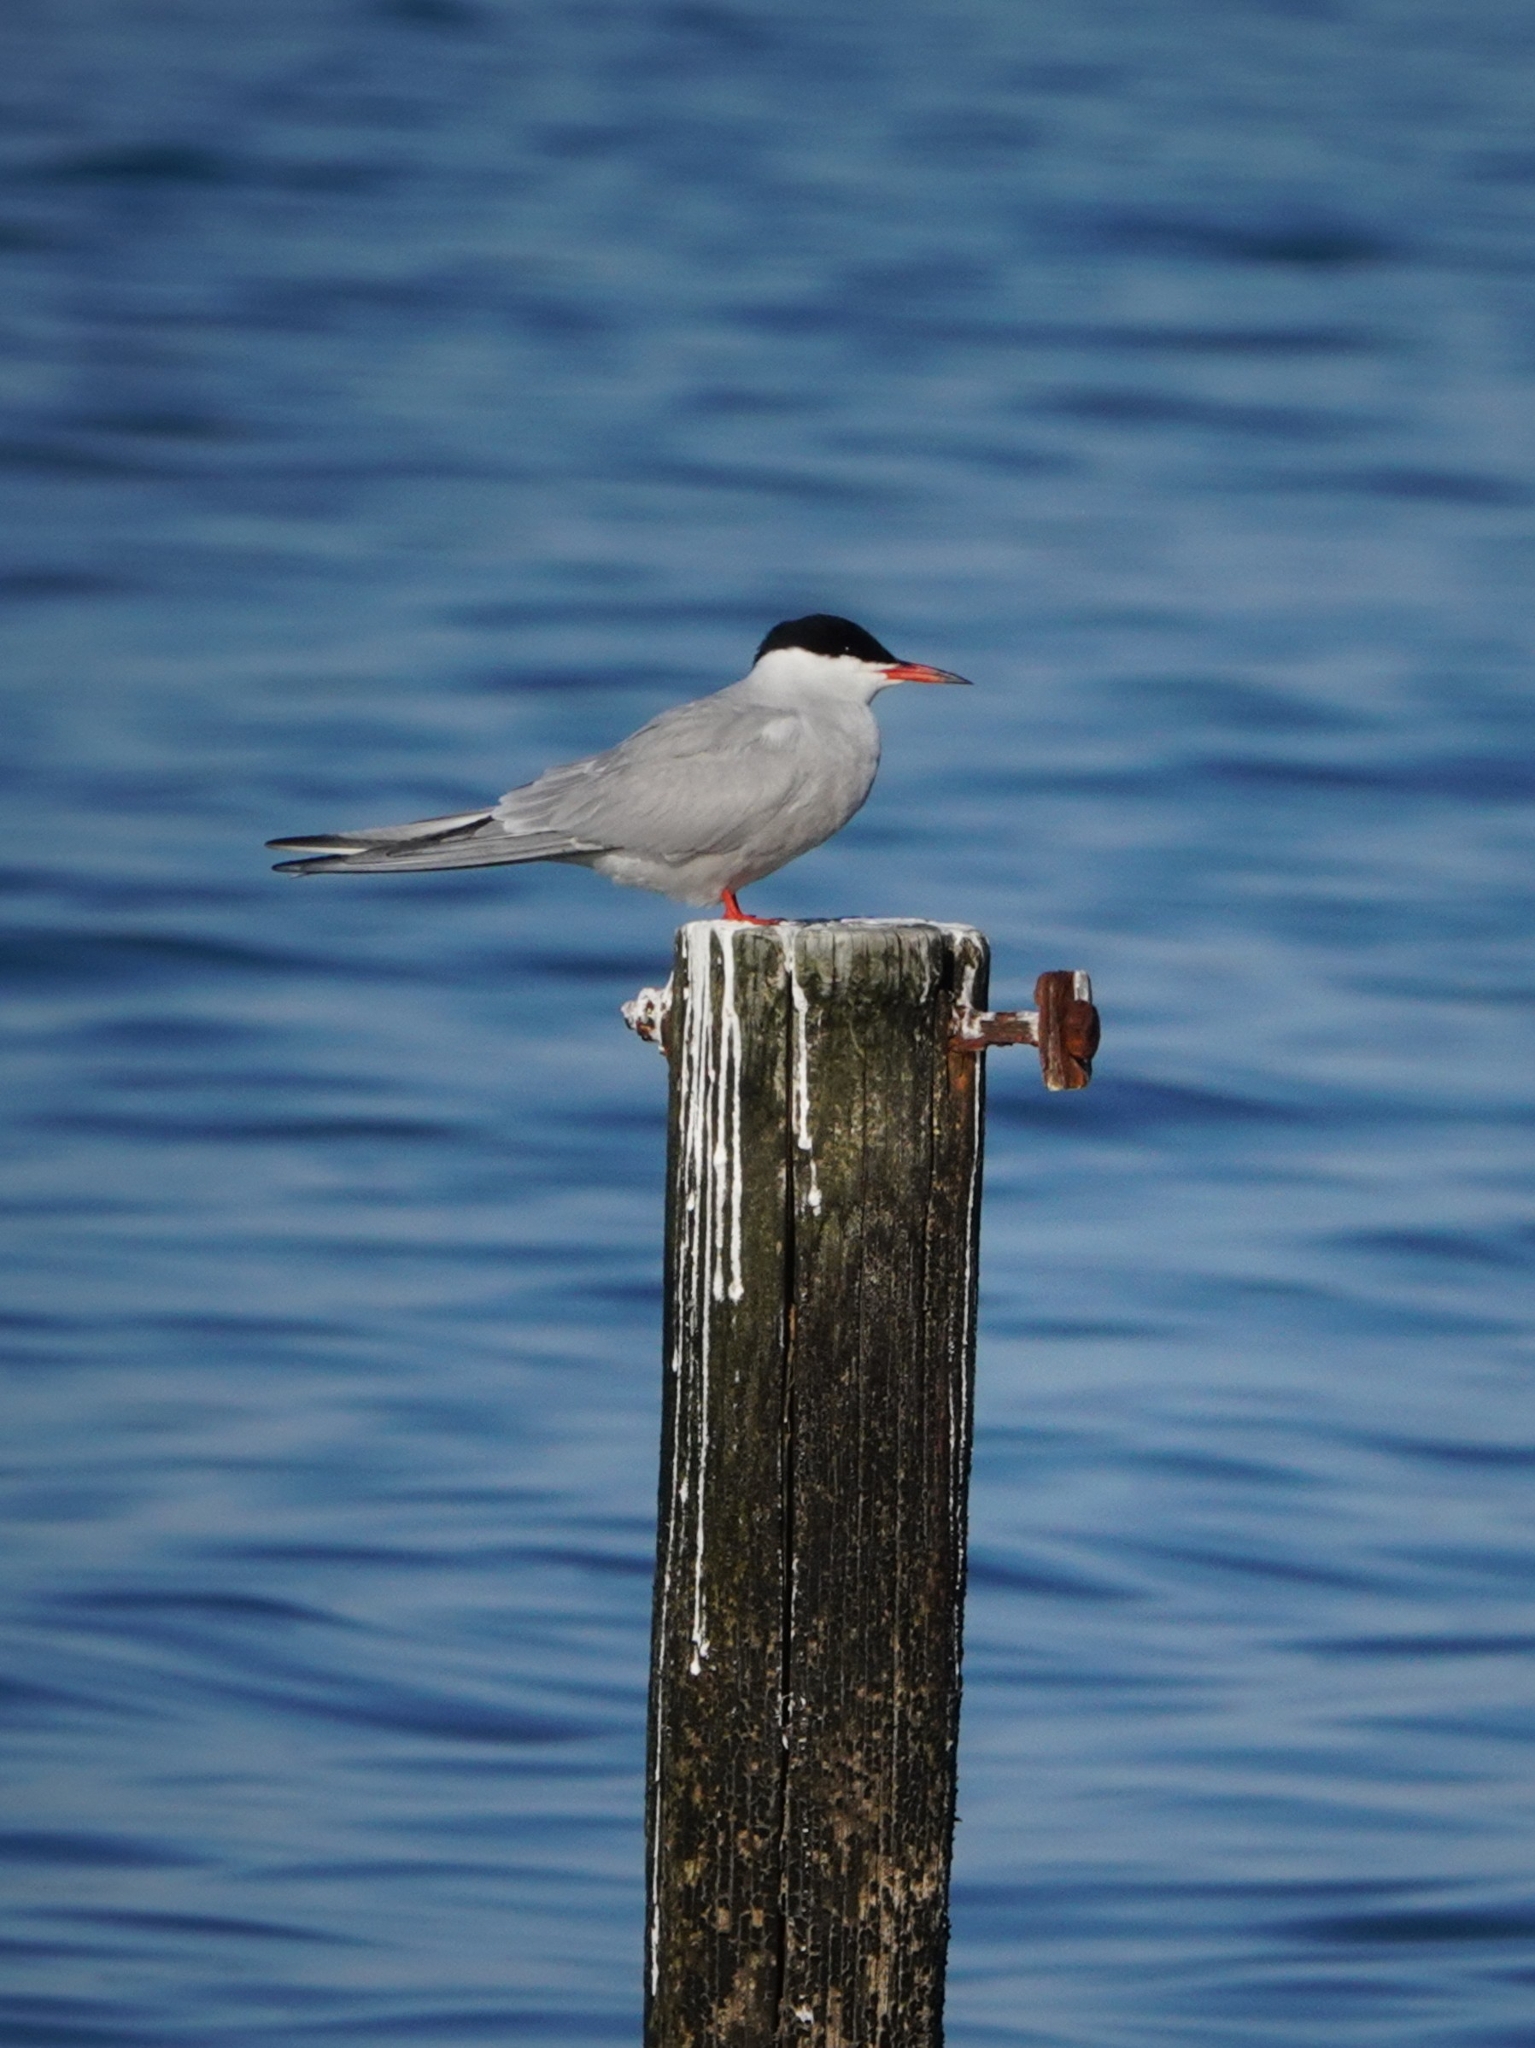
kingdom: Animalia
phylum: Chordata
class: Aves
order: Charadriiformes
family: Laridae
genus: Sterna
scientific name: Sterna hirundo
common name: Common tern
